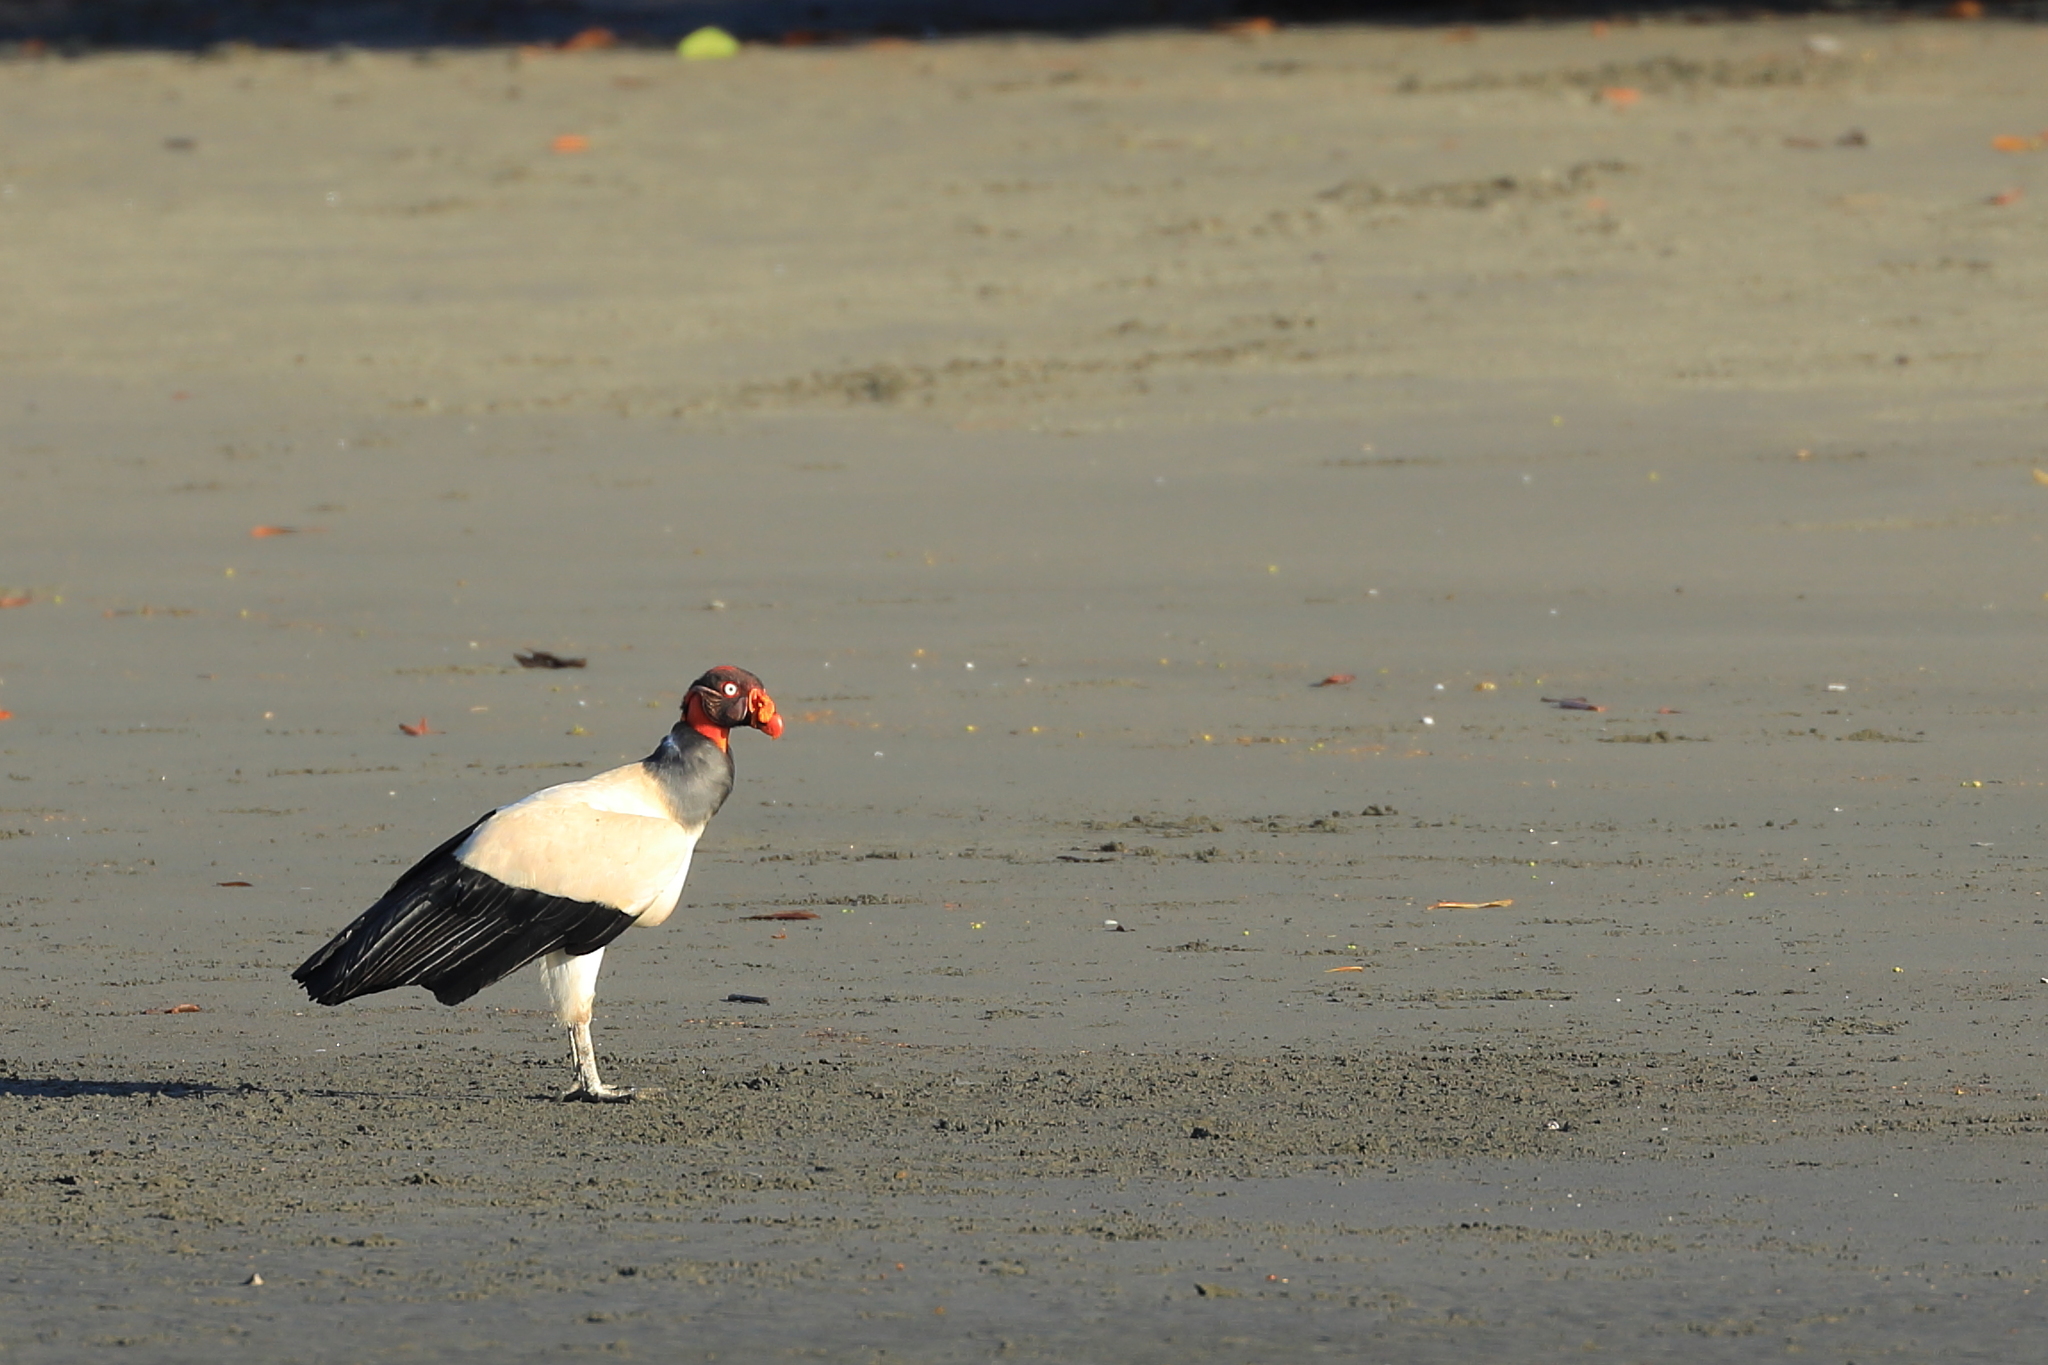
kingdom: Animalia
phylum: Chordata
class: Aves
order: Accipitriformes
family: Cathartidae
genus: Sarcoramphus
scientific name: Sarcoramphus papa
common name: King vulture
